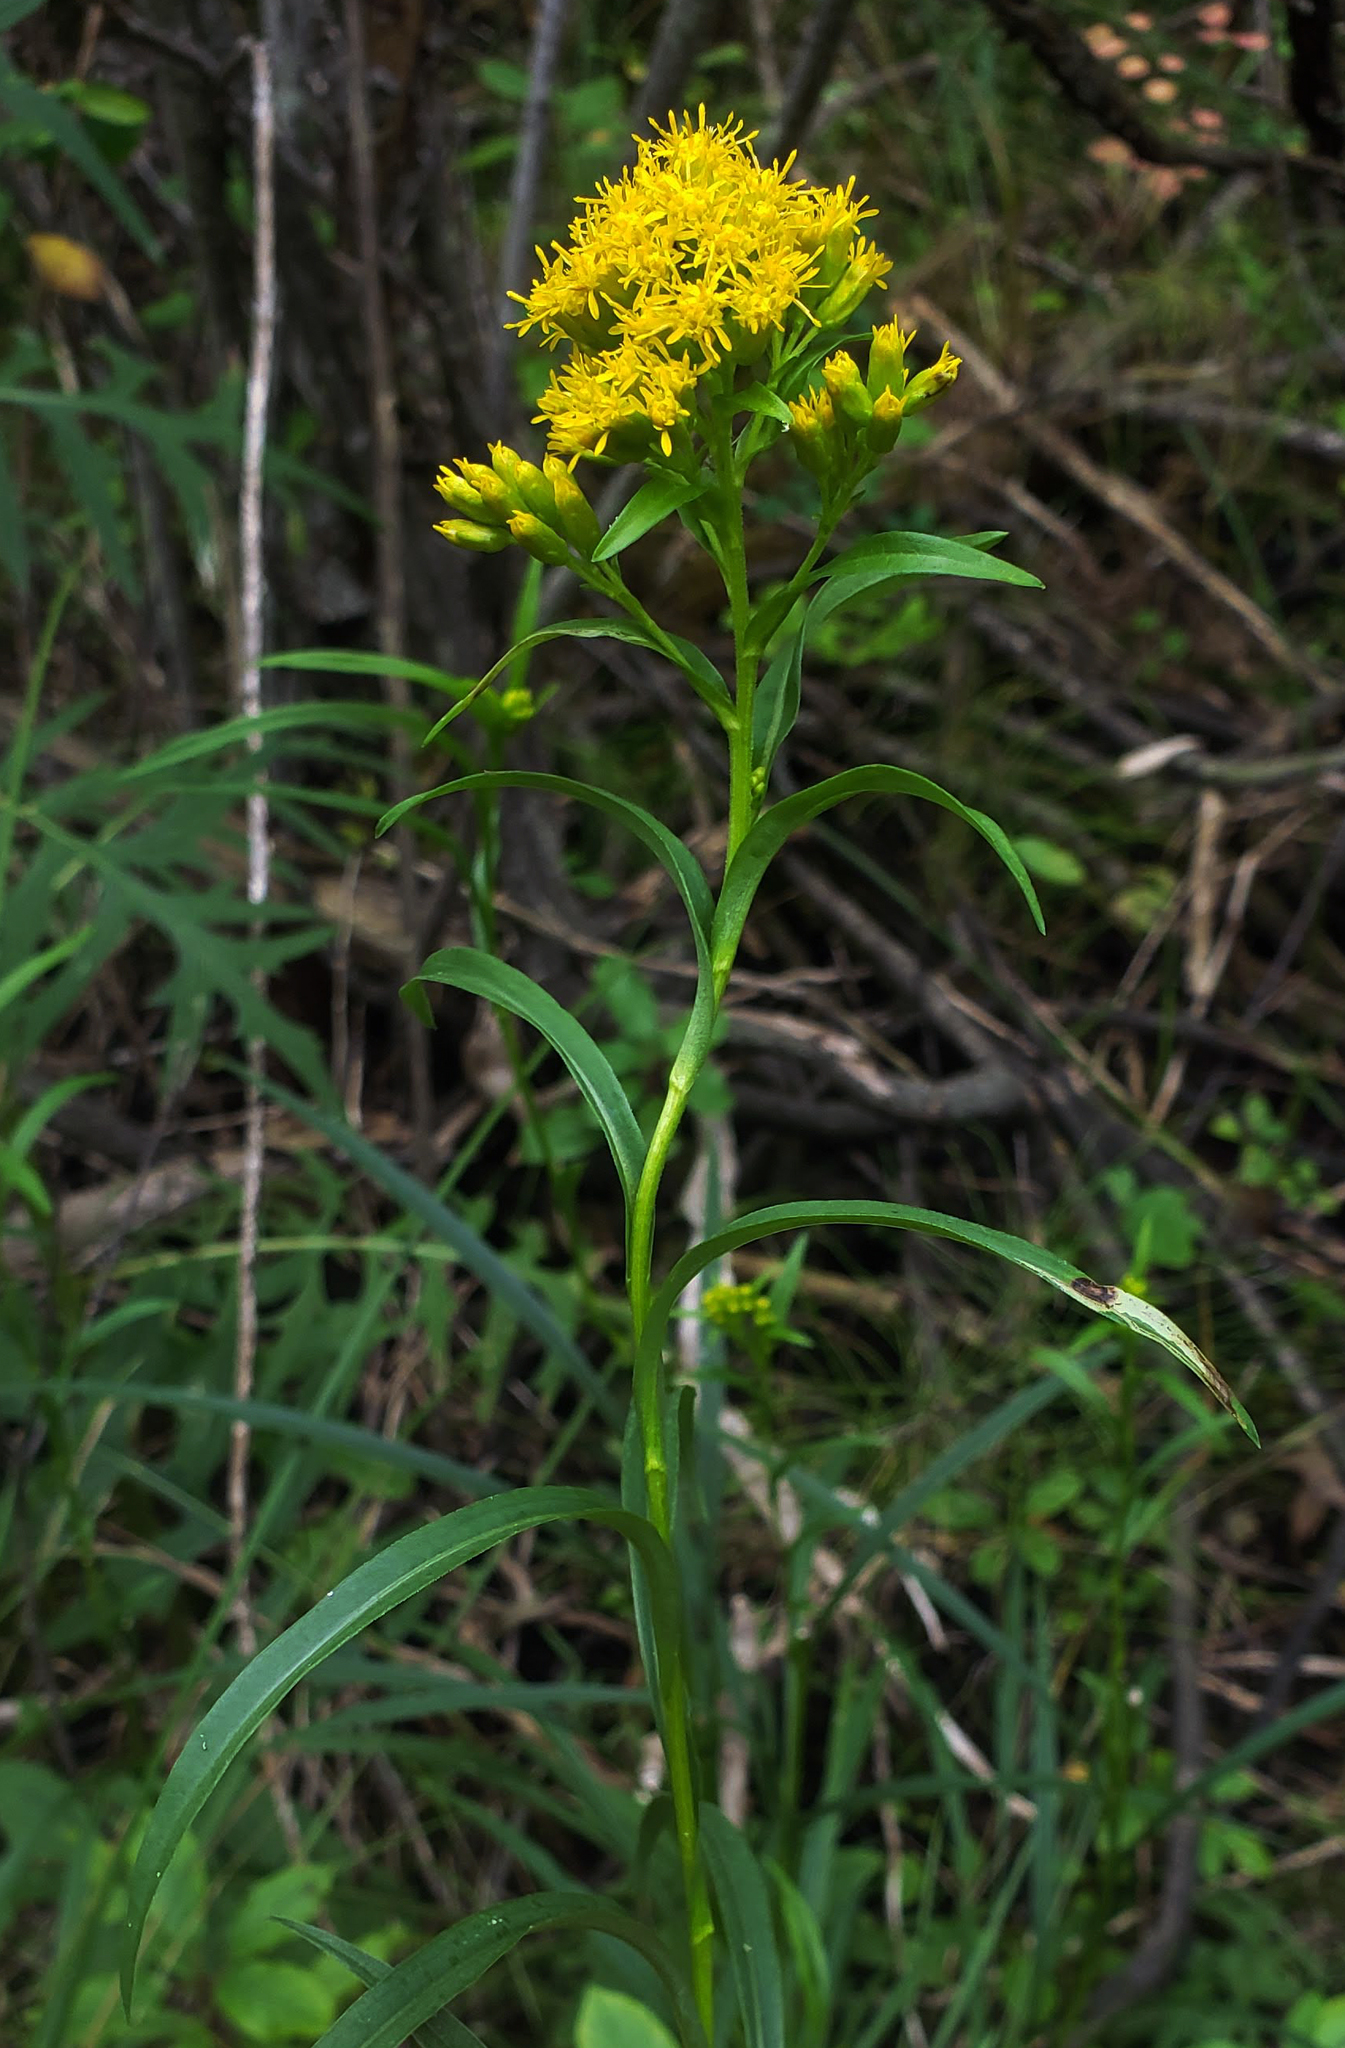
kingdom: Plantae
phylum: Tracheophyta
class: Magnoliopsida
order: Asterales
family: Asteraceae
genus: Solidago
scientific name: Solidago riddellii
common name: Riddell's goldenrod
